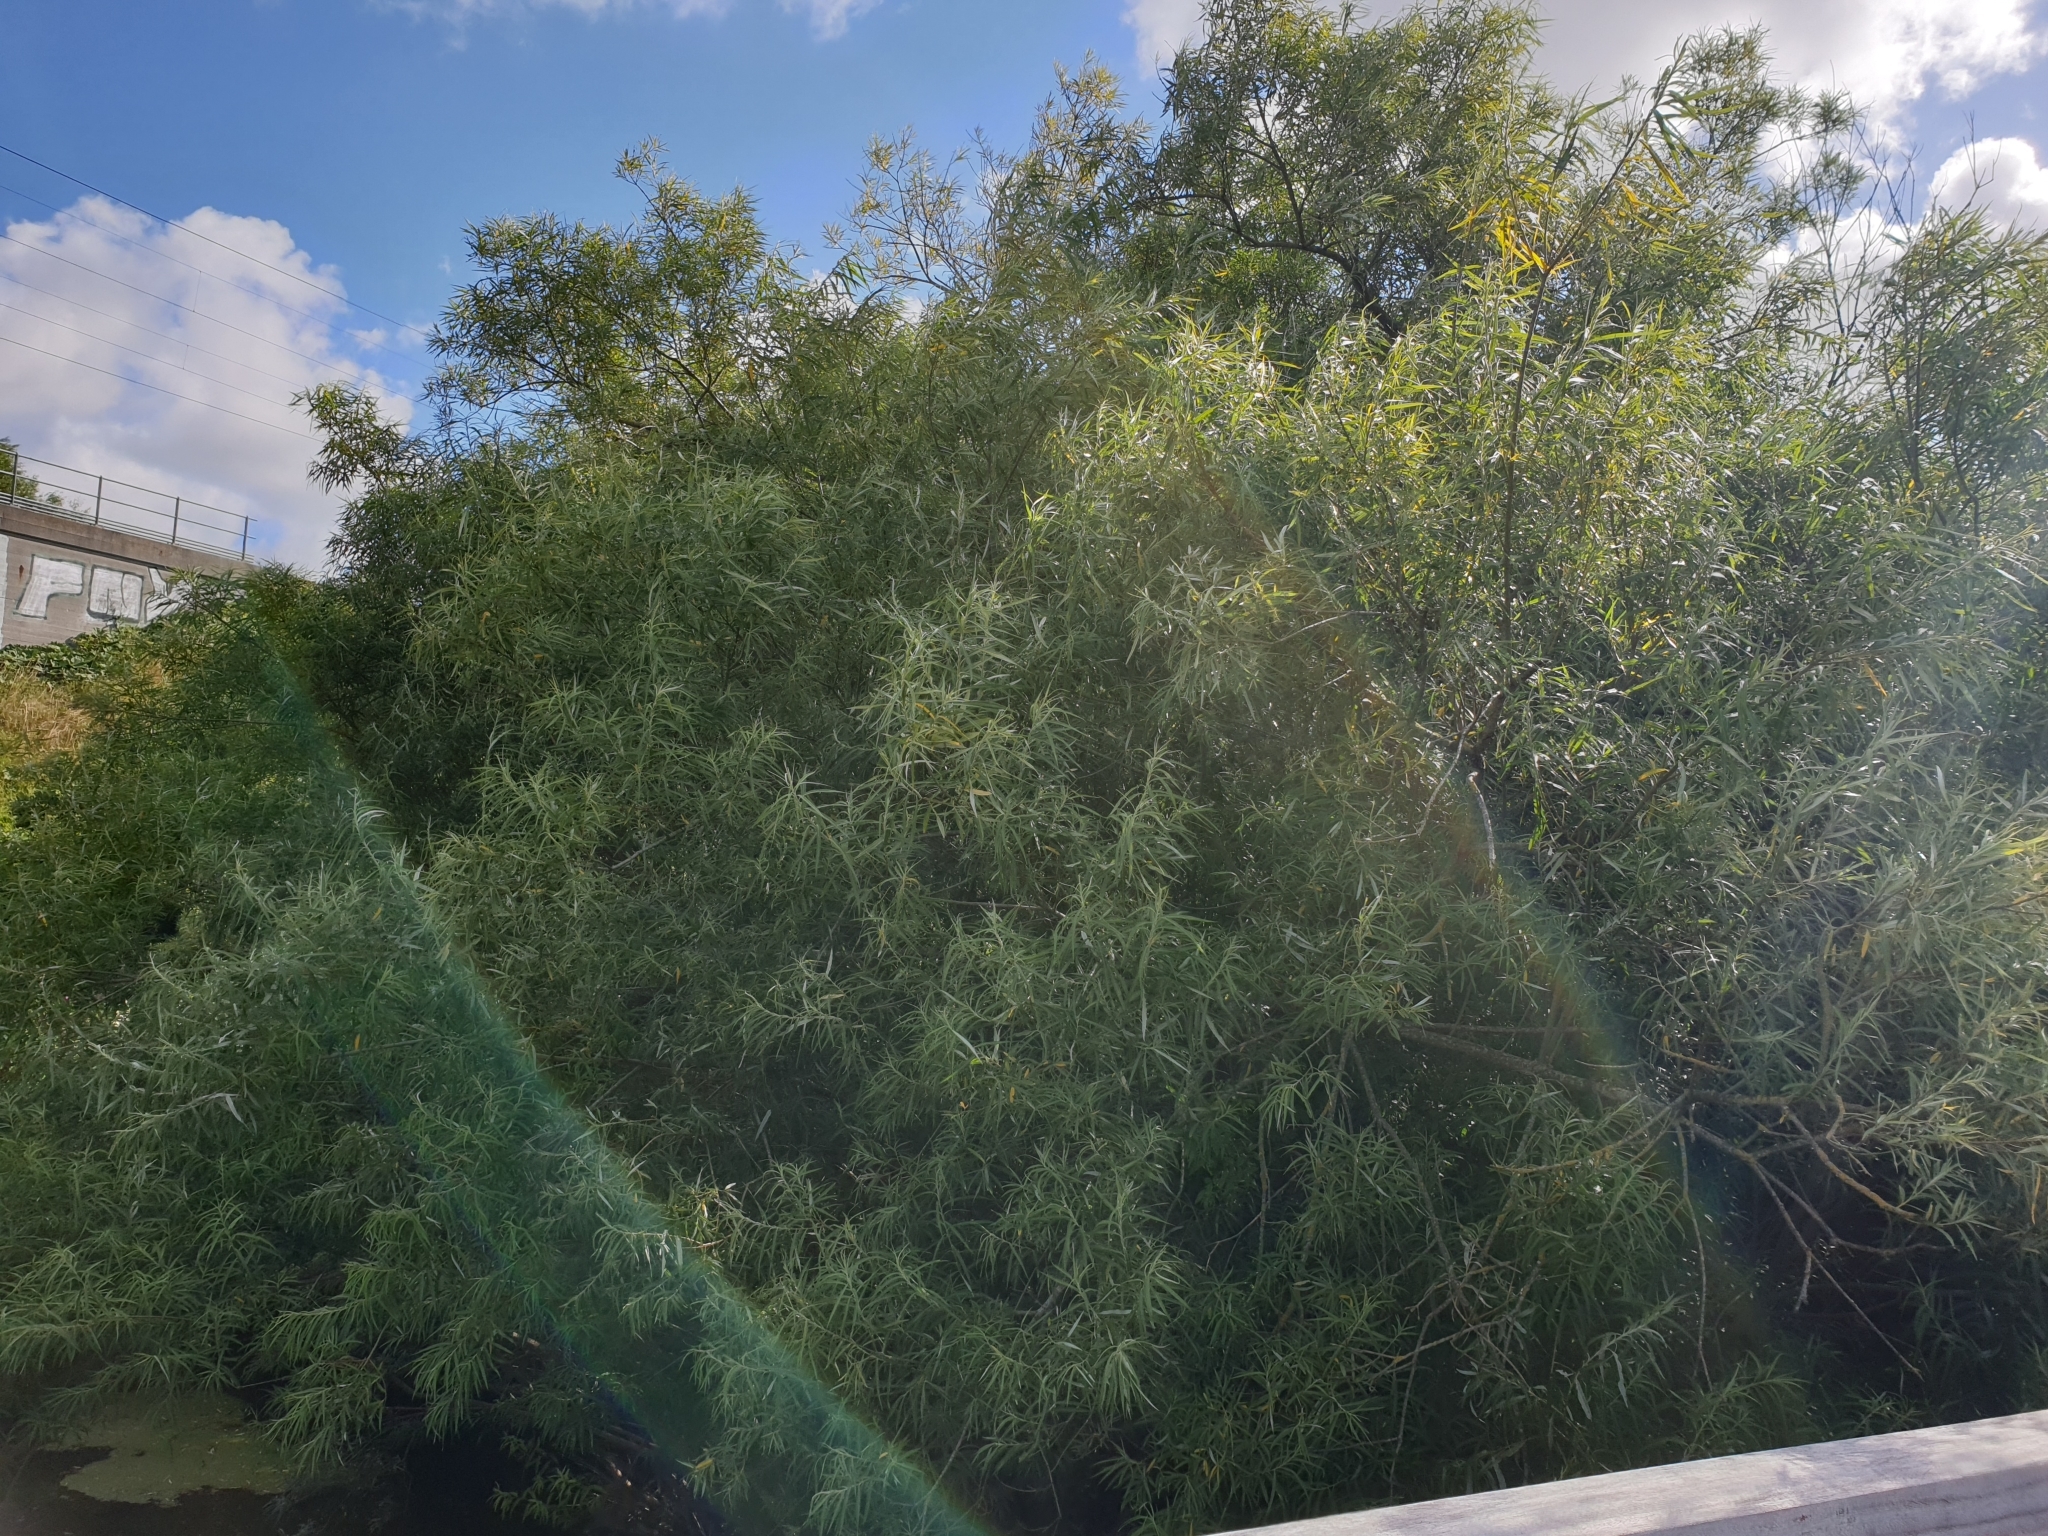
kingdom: Plantae
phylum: Tracheophyta
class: Magnoliopsida
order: Malpighiales
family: Salicaceae
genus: Salix
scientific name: Salix viminalis
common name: Osier
